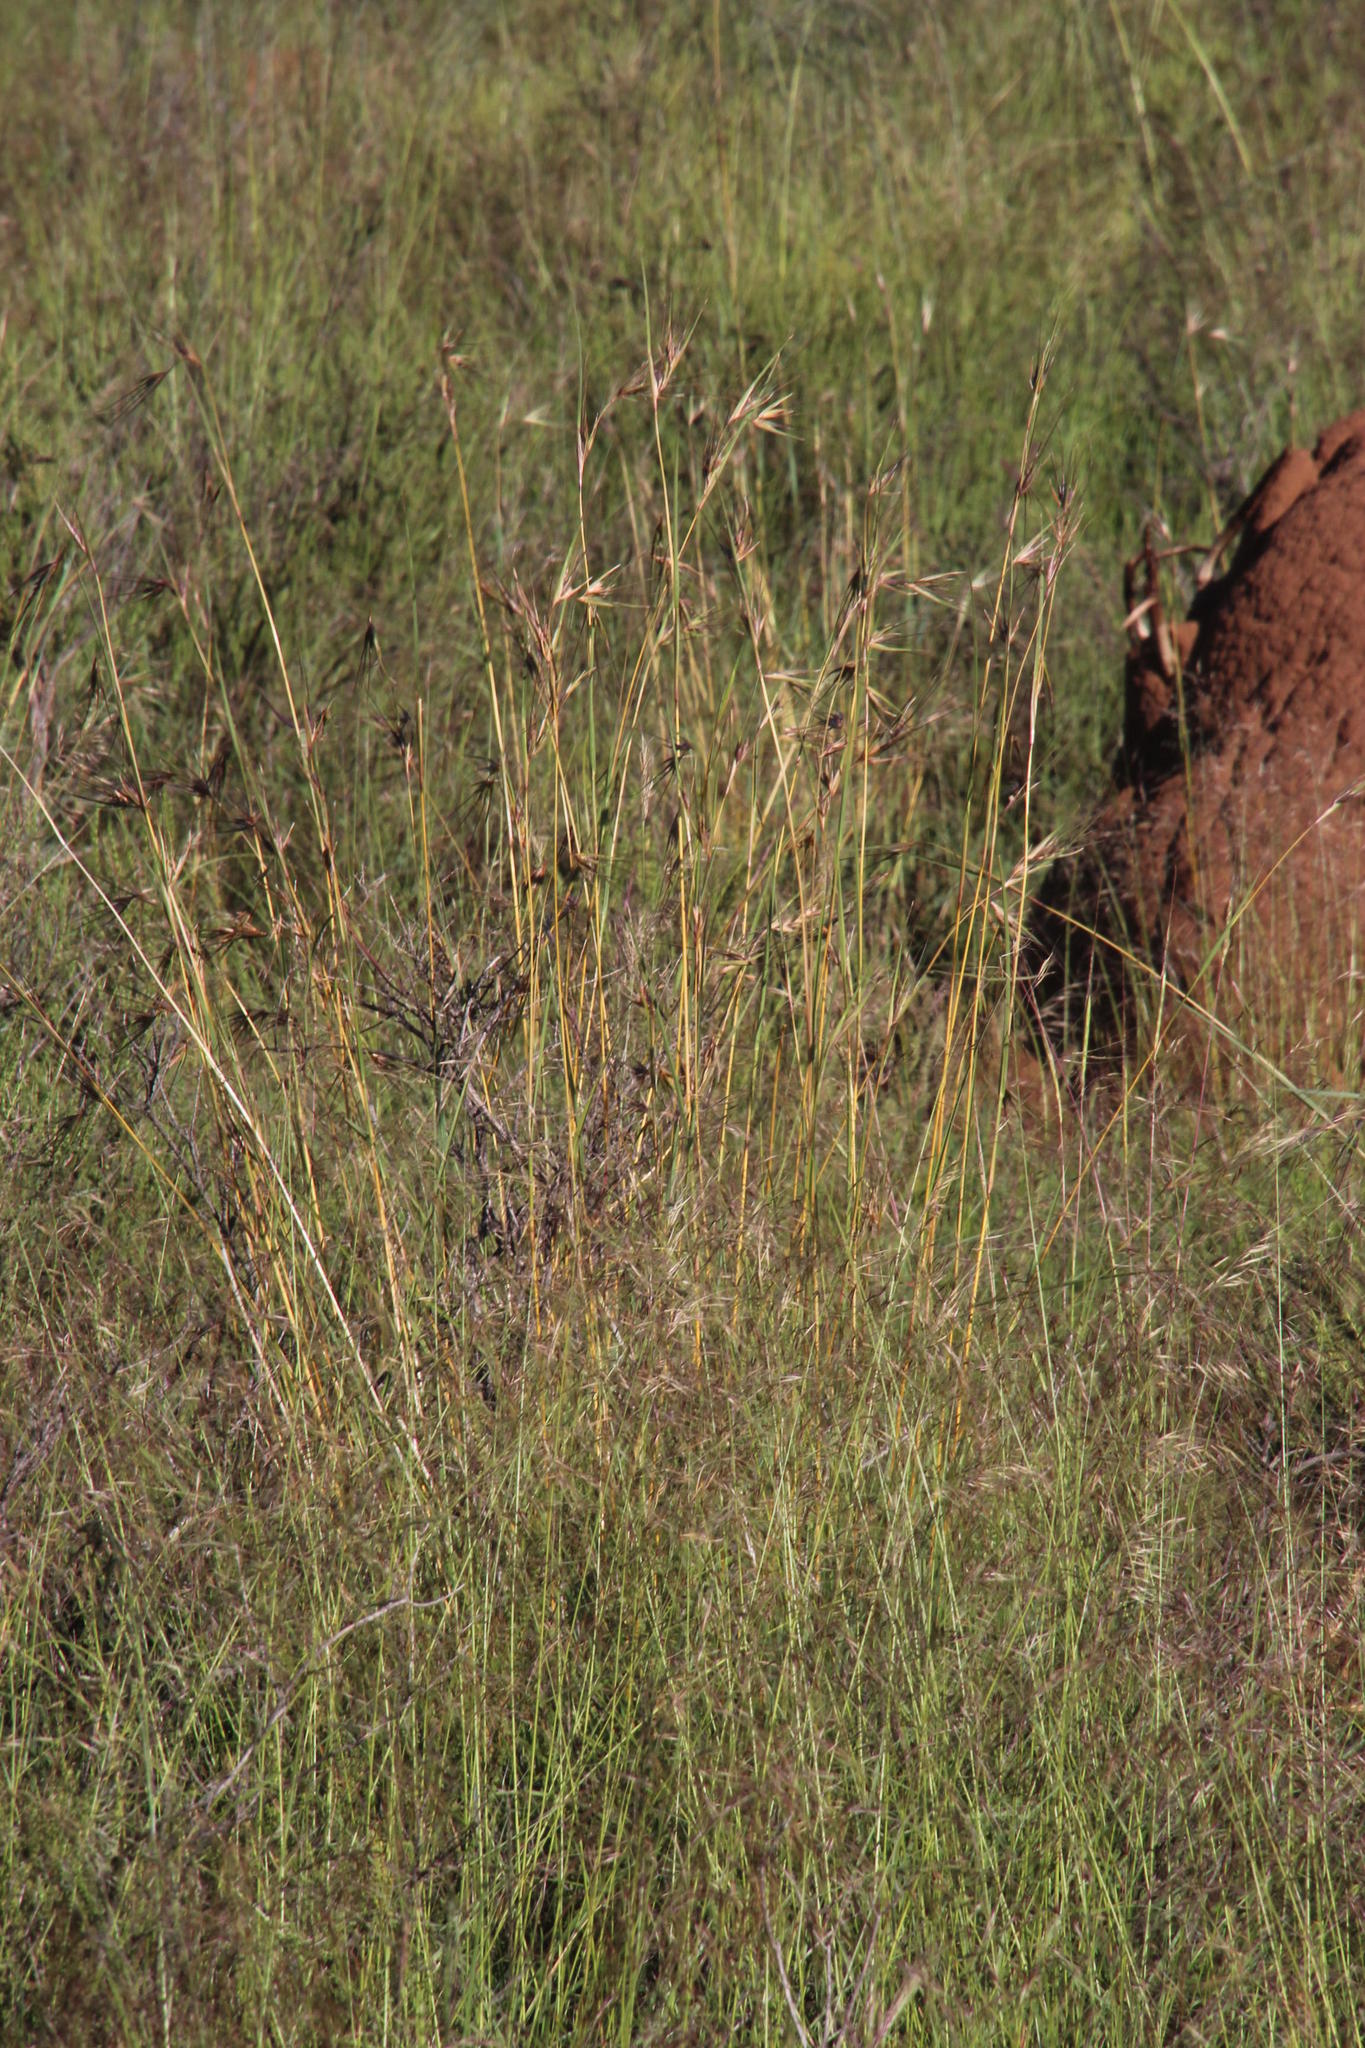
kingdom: Plantae
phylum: Tracheophyta
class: Liliopsida
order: Poales
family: Poaceae
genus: Themeda
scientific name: Themeda triandra
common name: Kangaroo grass
